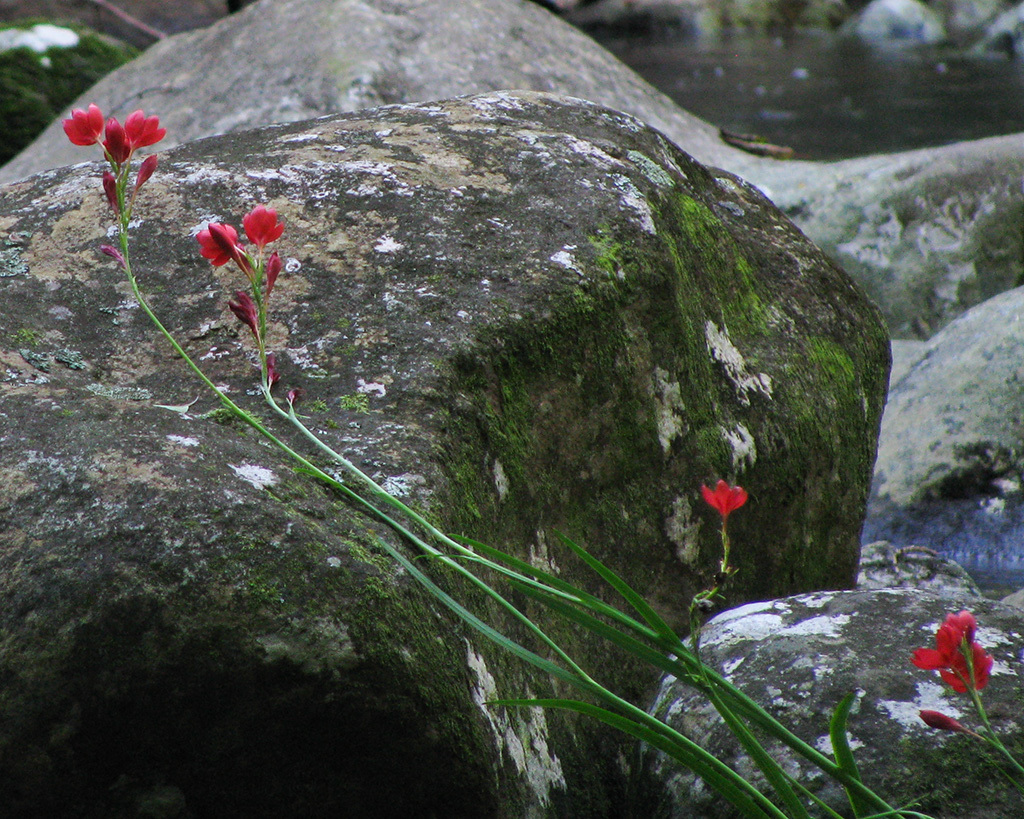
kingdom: Plantae
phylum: Tracheophyta
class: Liliopsida
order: Asparagales
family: Iridaceae
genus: Hesperantha
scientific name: Hesperantha coccinea
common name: River-lily
